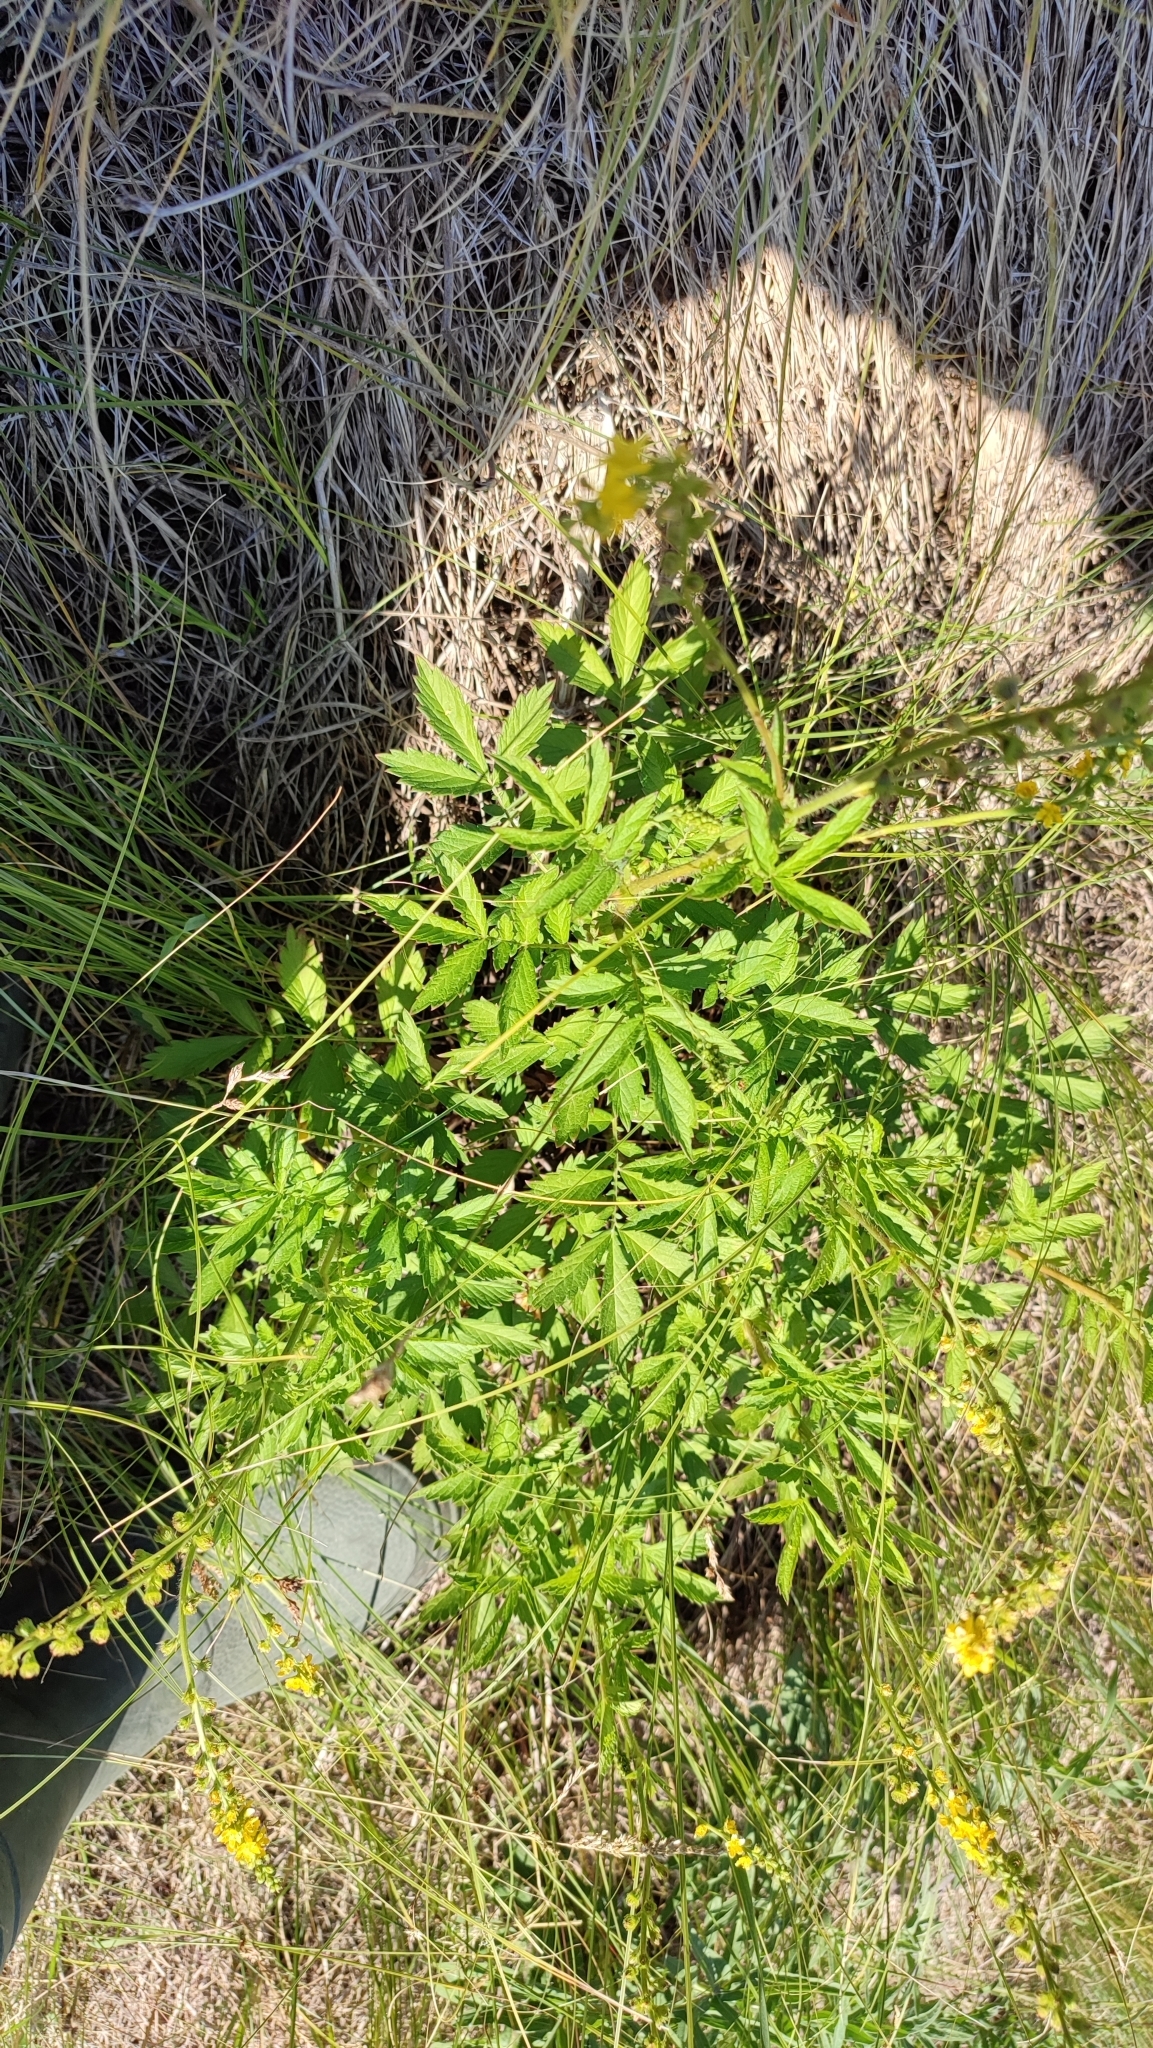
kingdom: Plantae
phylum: Tracheophyta
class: Magnoliopsida
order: Rosales
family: Rosaceae
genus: Agrimonia
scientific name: Agrimonia pilosa
